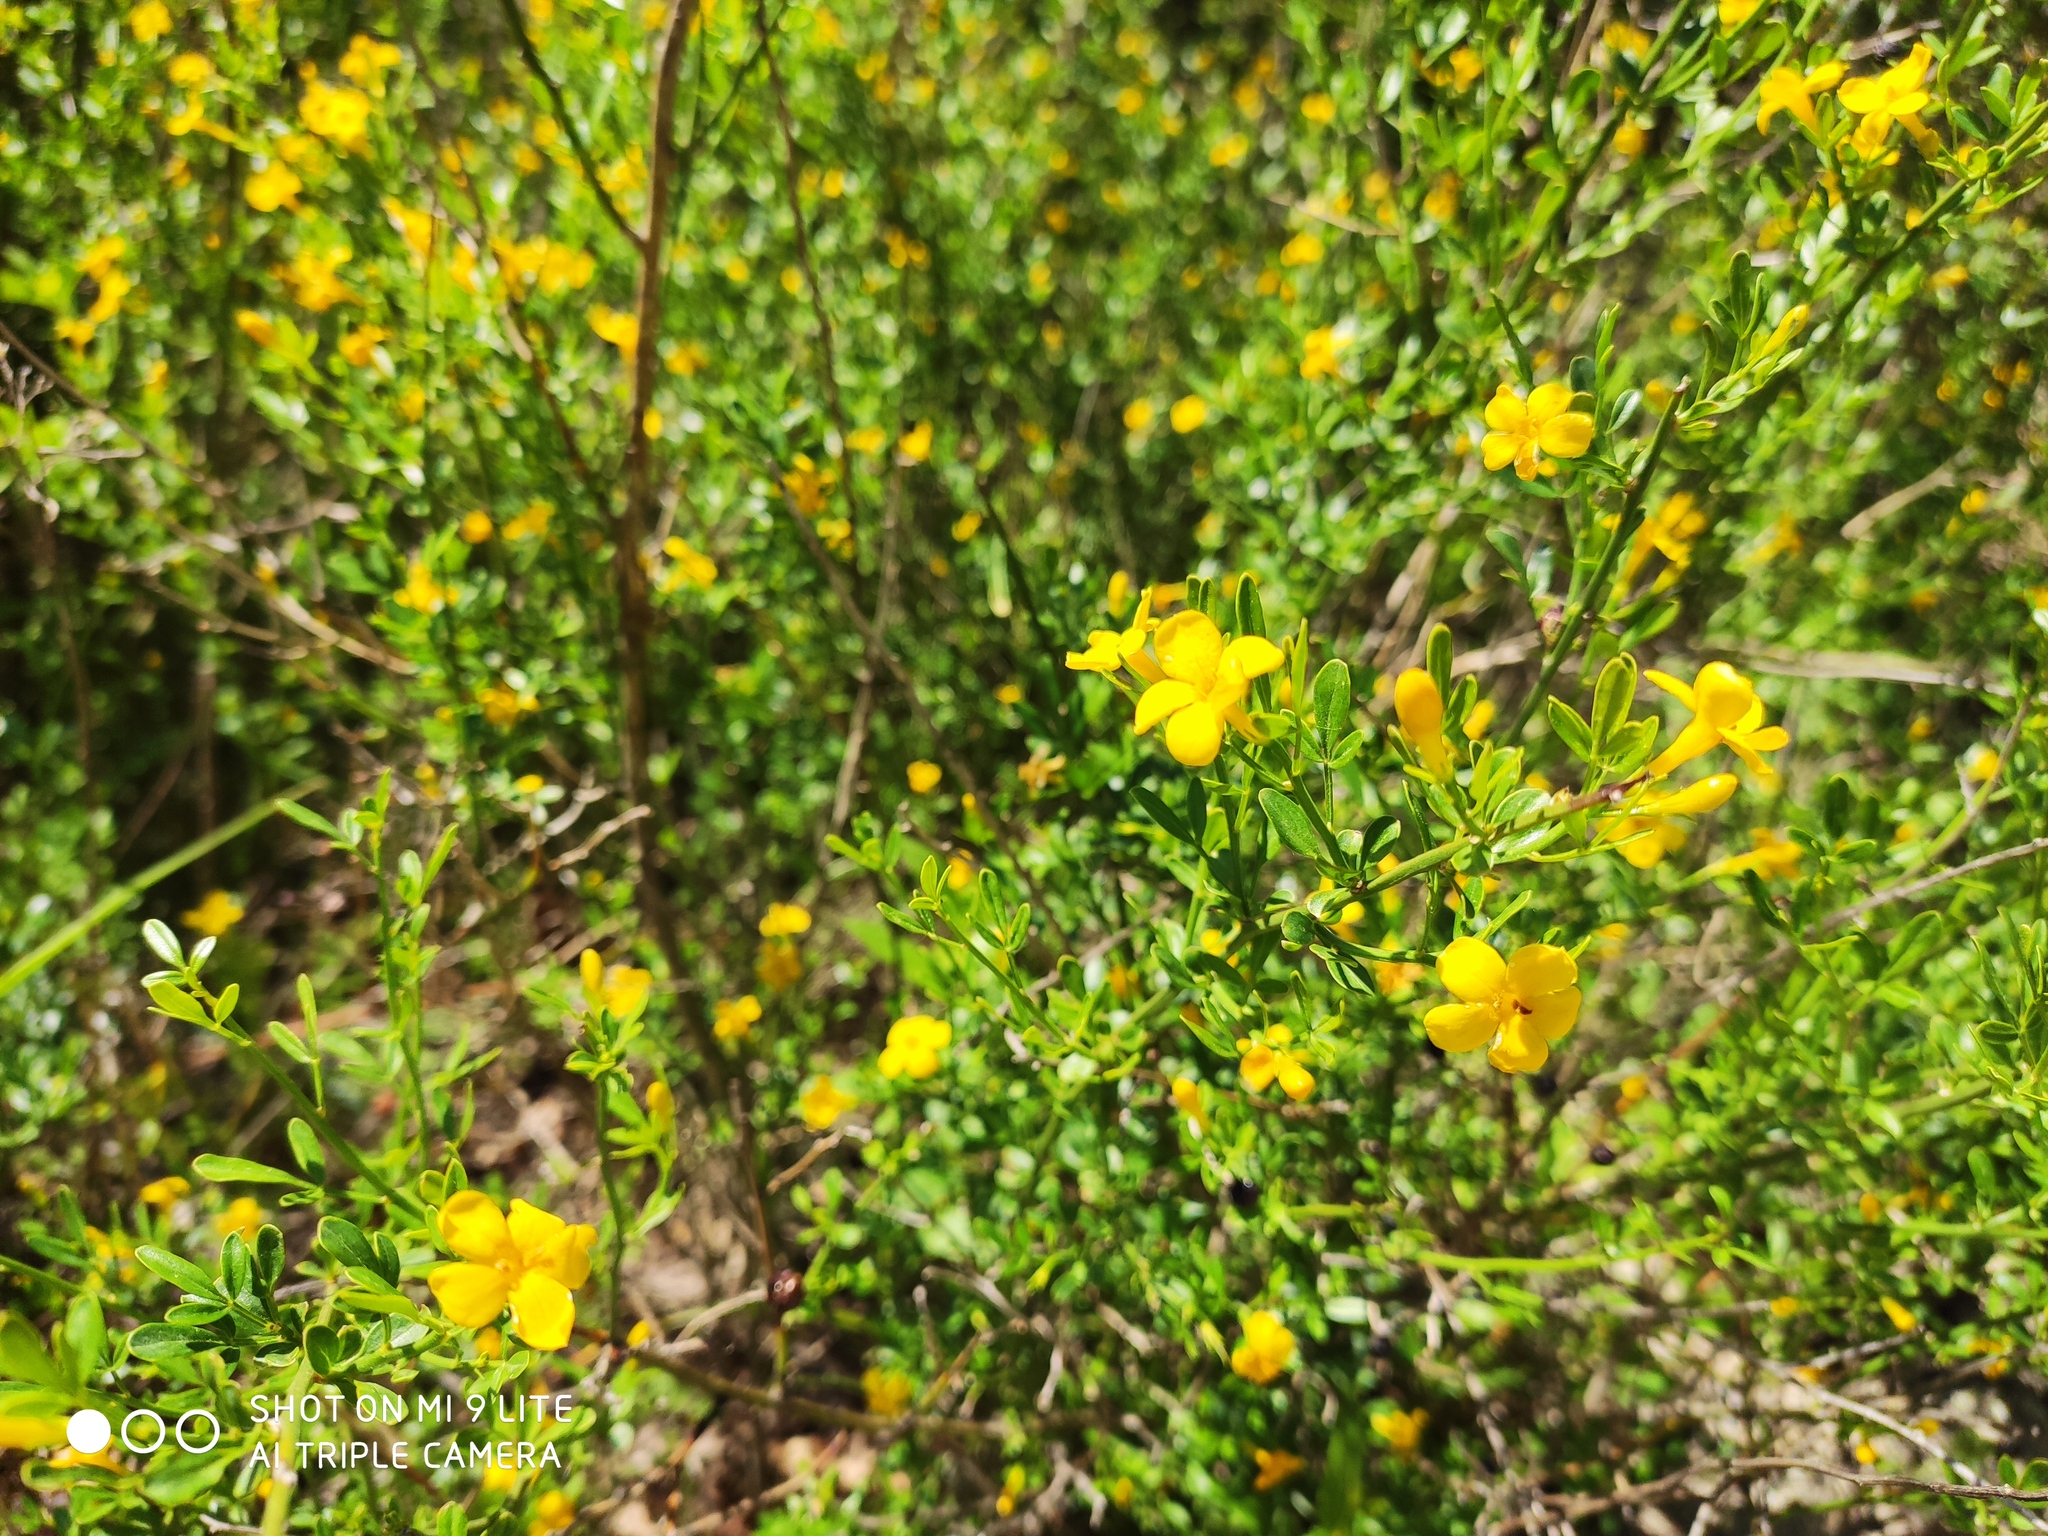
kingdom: Plantae
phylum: Tracheophyta
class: Magnoliopsida
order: Lamiales
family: Oleaceae
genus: Chrysojasminum
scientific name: Chrysojasminum fruticans
